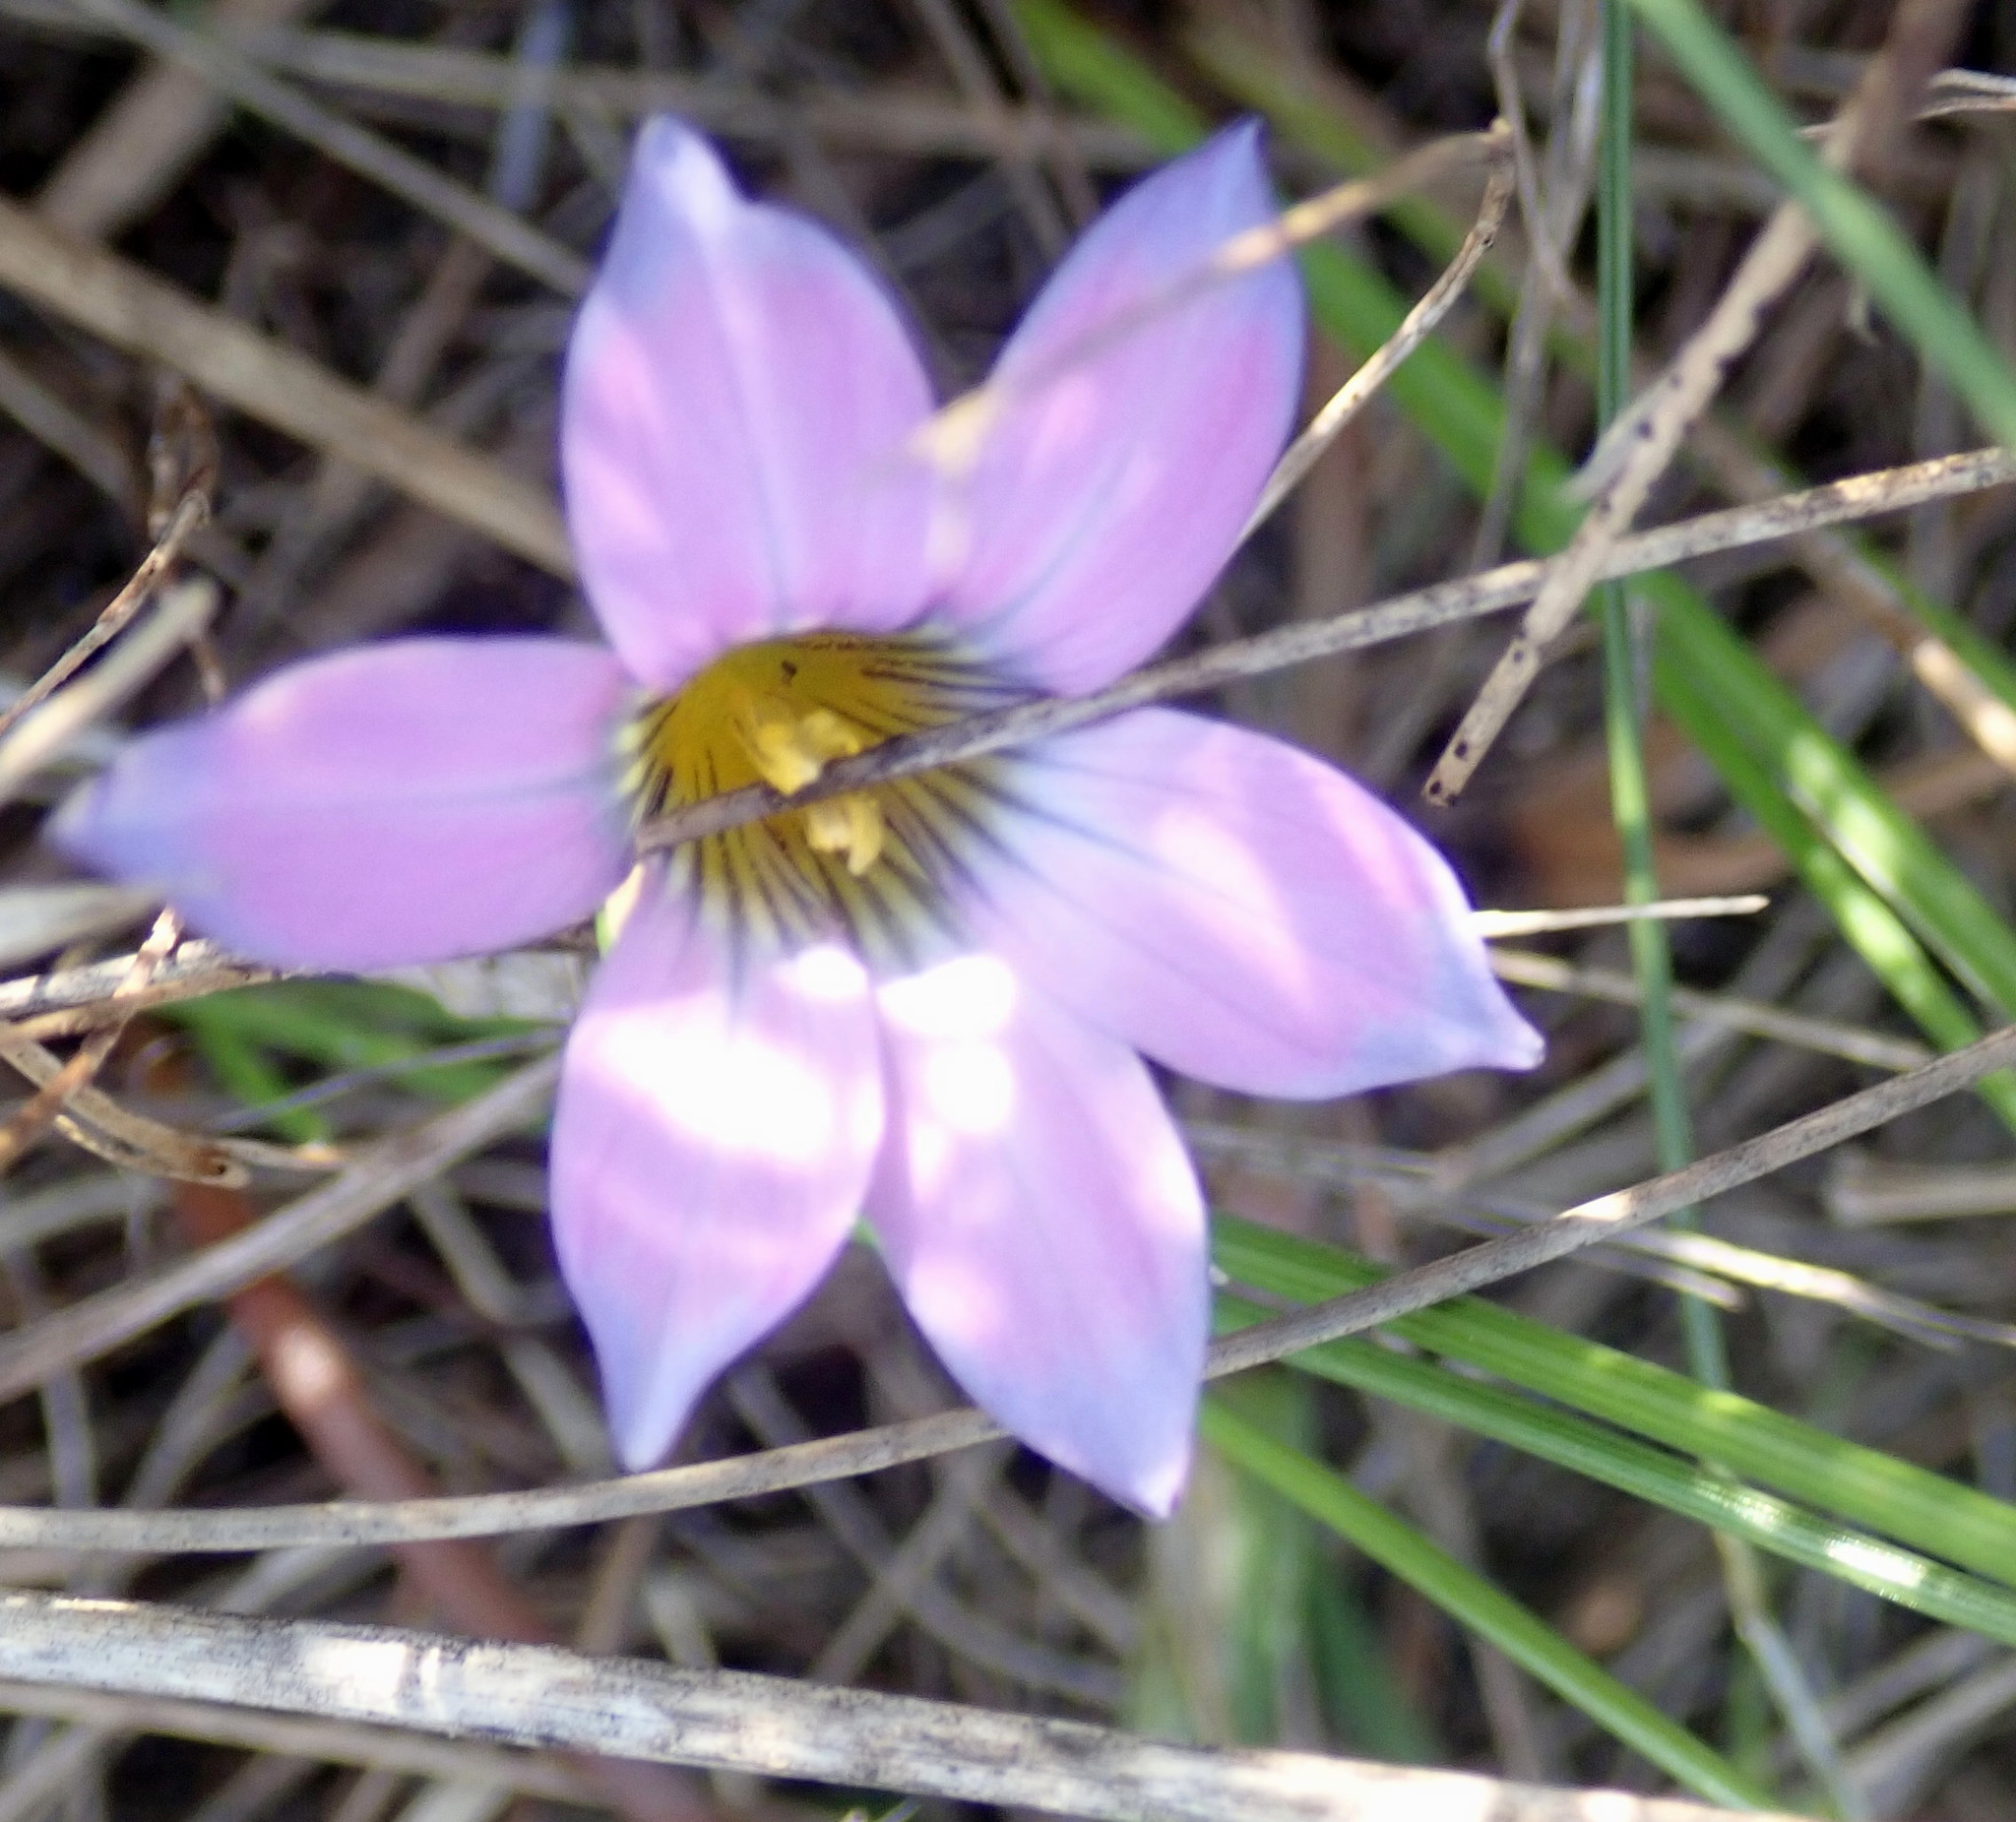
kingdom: Plantae
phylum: Tracheophyta
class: Liliopsida
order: Asparagales
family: Iridaceae
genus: Romulea
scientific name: Romulea rosea
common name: Oniongrass
